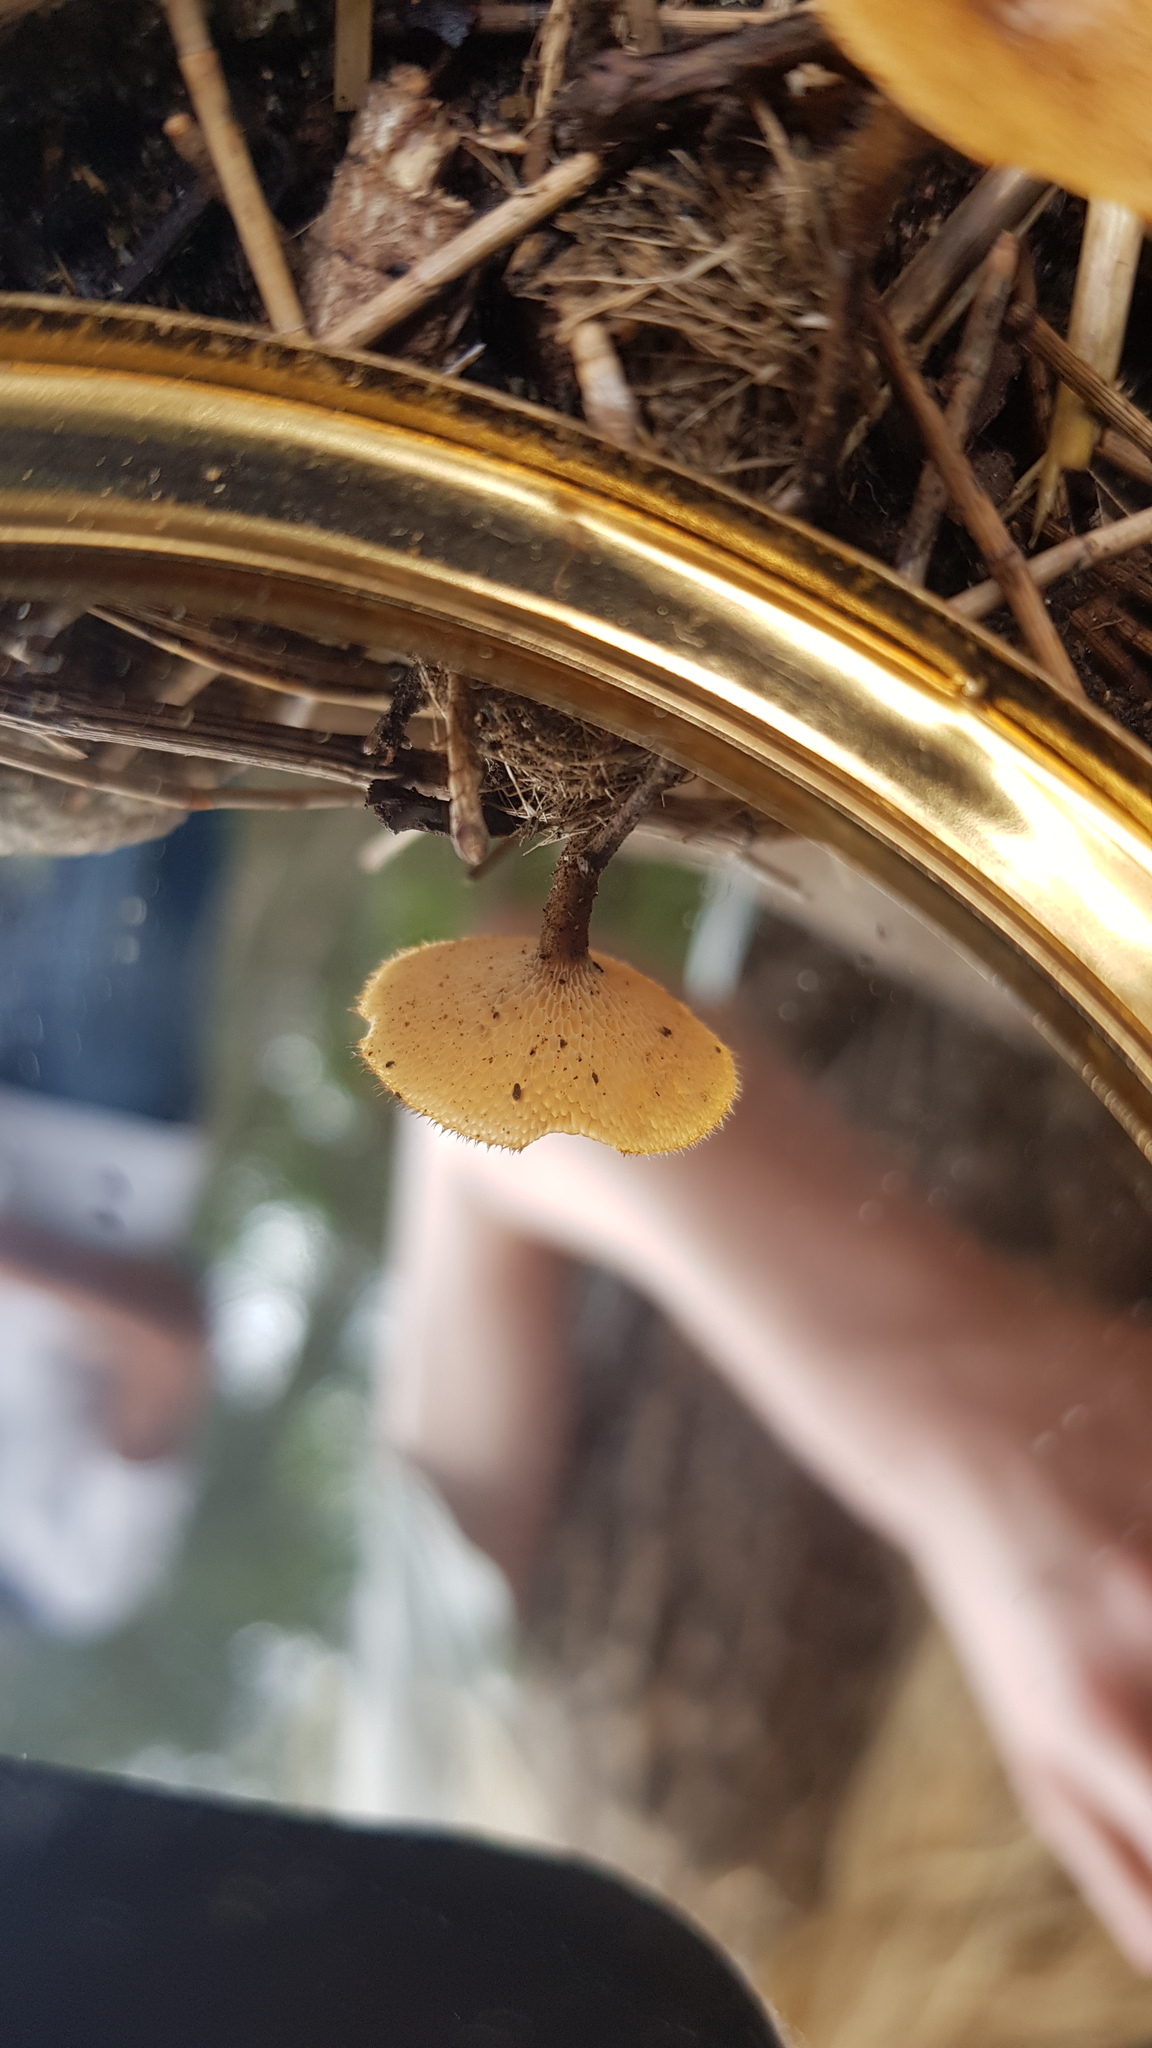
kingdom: Fungi
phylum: Basidiomycota
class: Agaricomycetes
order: Polyporales
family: Polyporaceae
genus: Lentinus
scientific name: Lentinus arcularius
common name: Spring polypore
